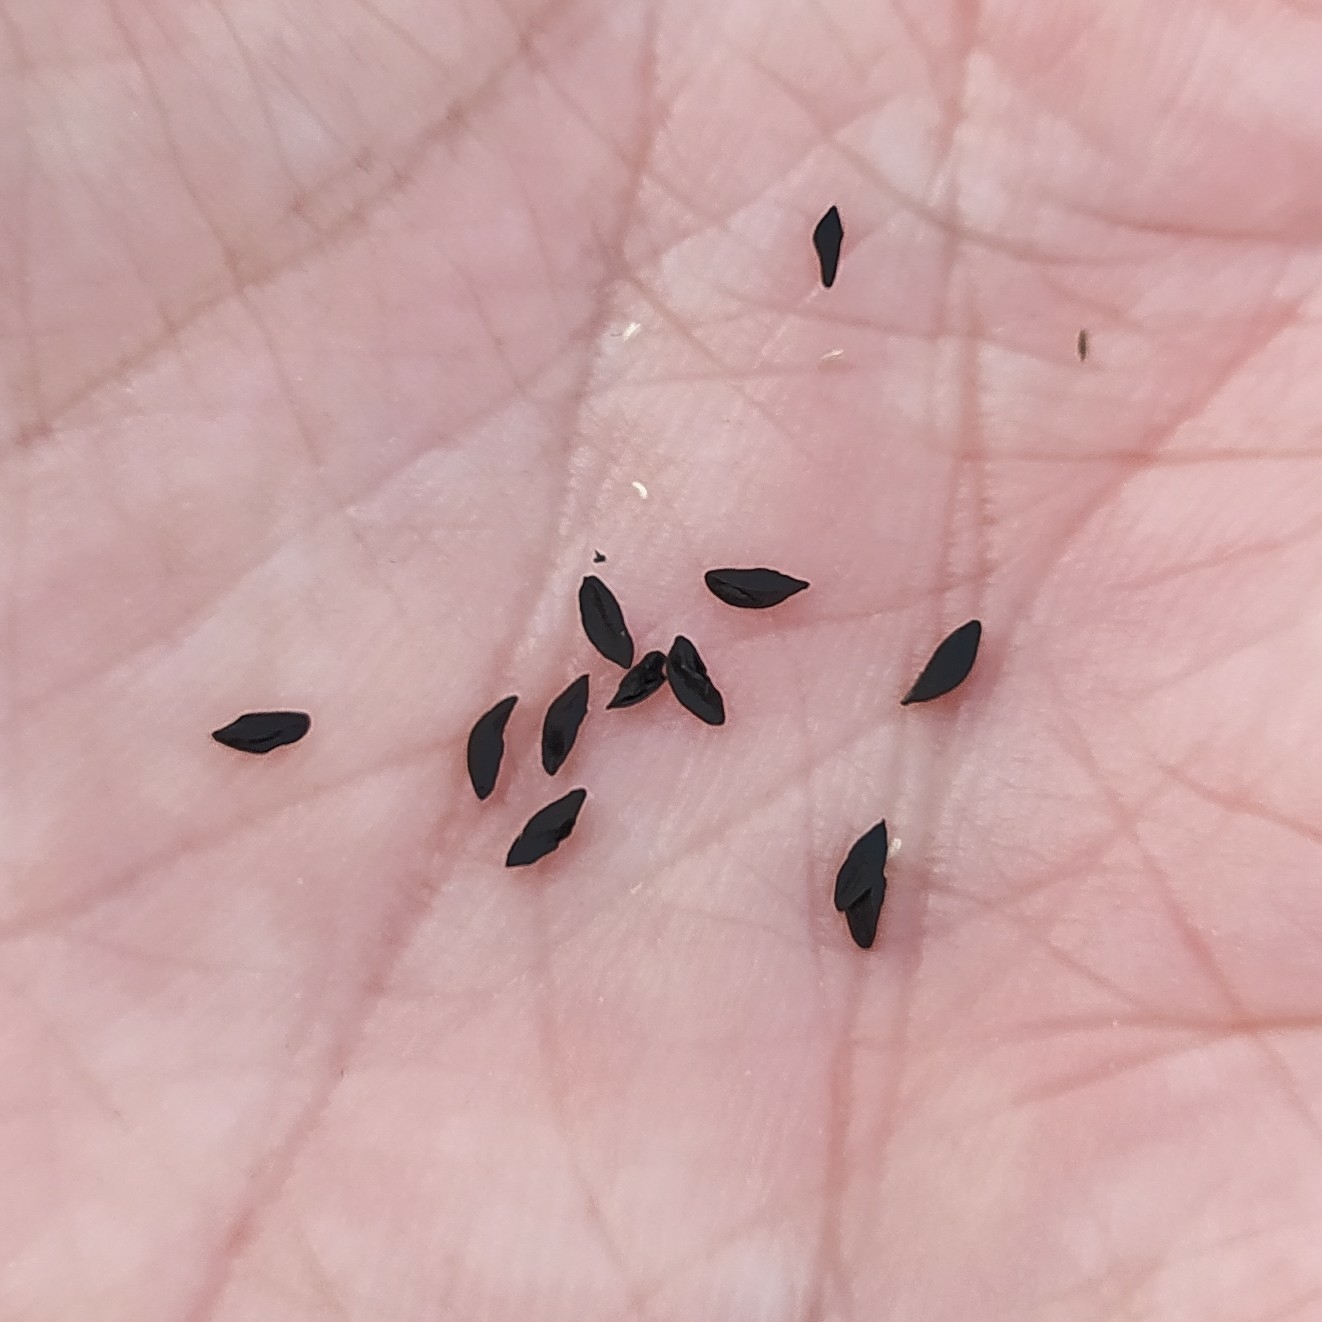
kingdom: Plantae
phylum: Tracheophyta
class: Liliopsida
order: Asparagales
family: Amaryllidaceae
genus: Allium
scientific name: Allium schoenoprasum
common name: Chives
